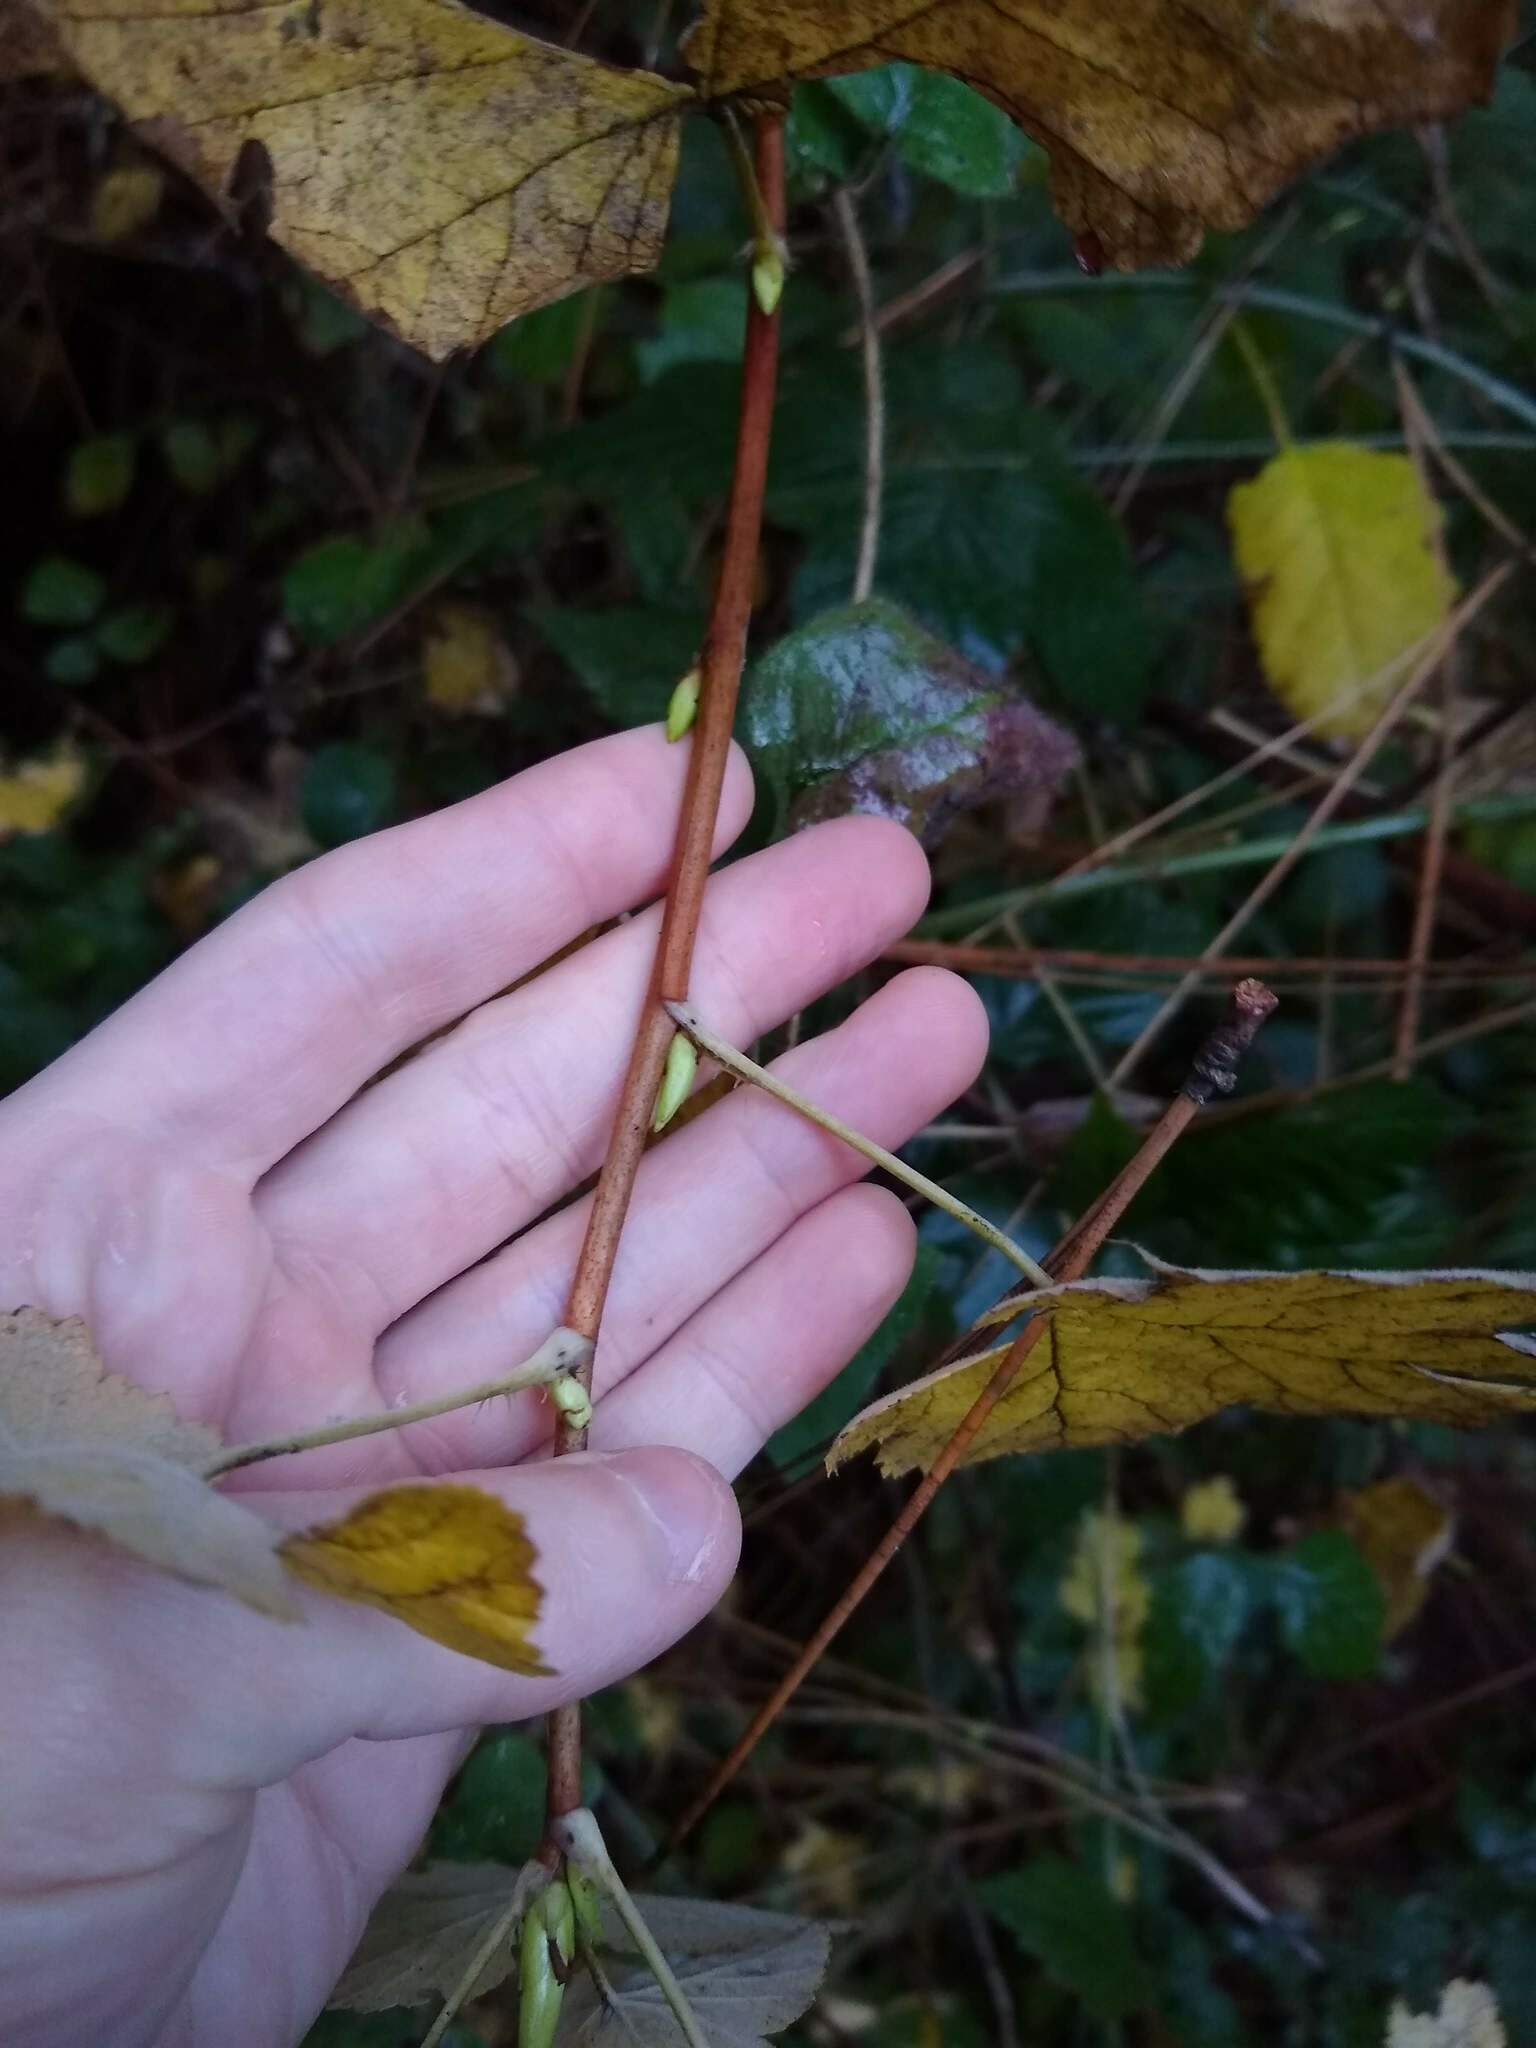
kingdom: Plantae
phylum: Tracheophyta
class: Magnoliopsida
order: Saxifragales
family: Grossulariaceae
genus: Ribes
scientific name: Ribes sanguineum
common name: Flowering currant
